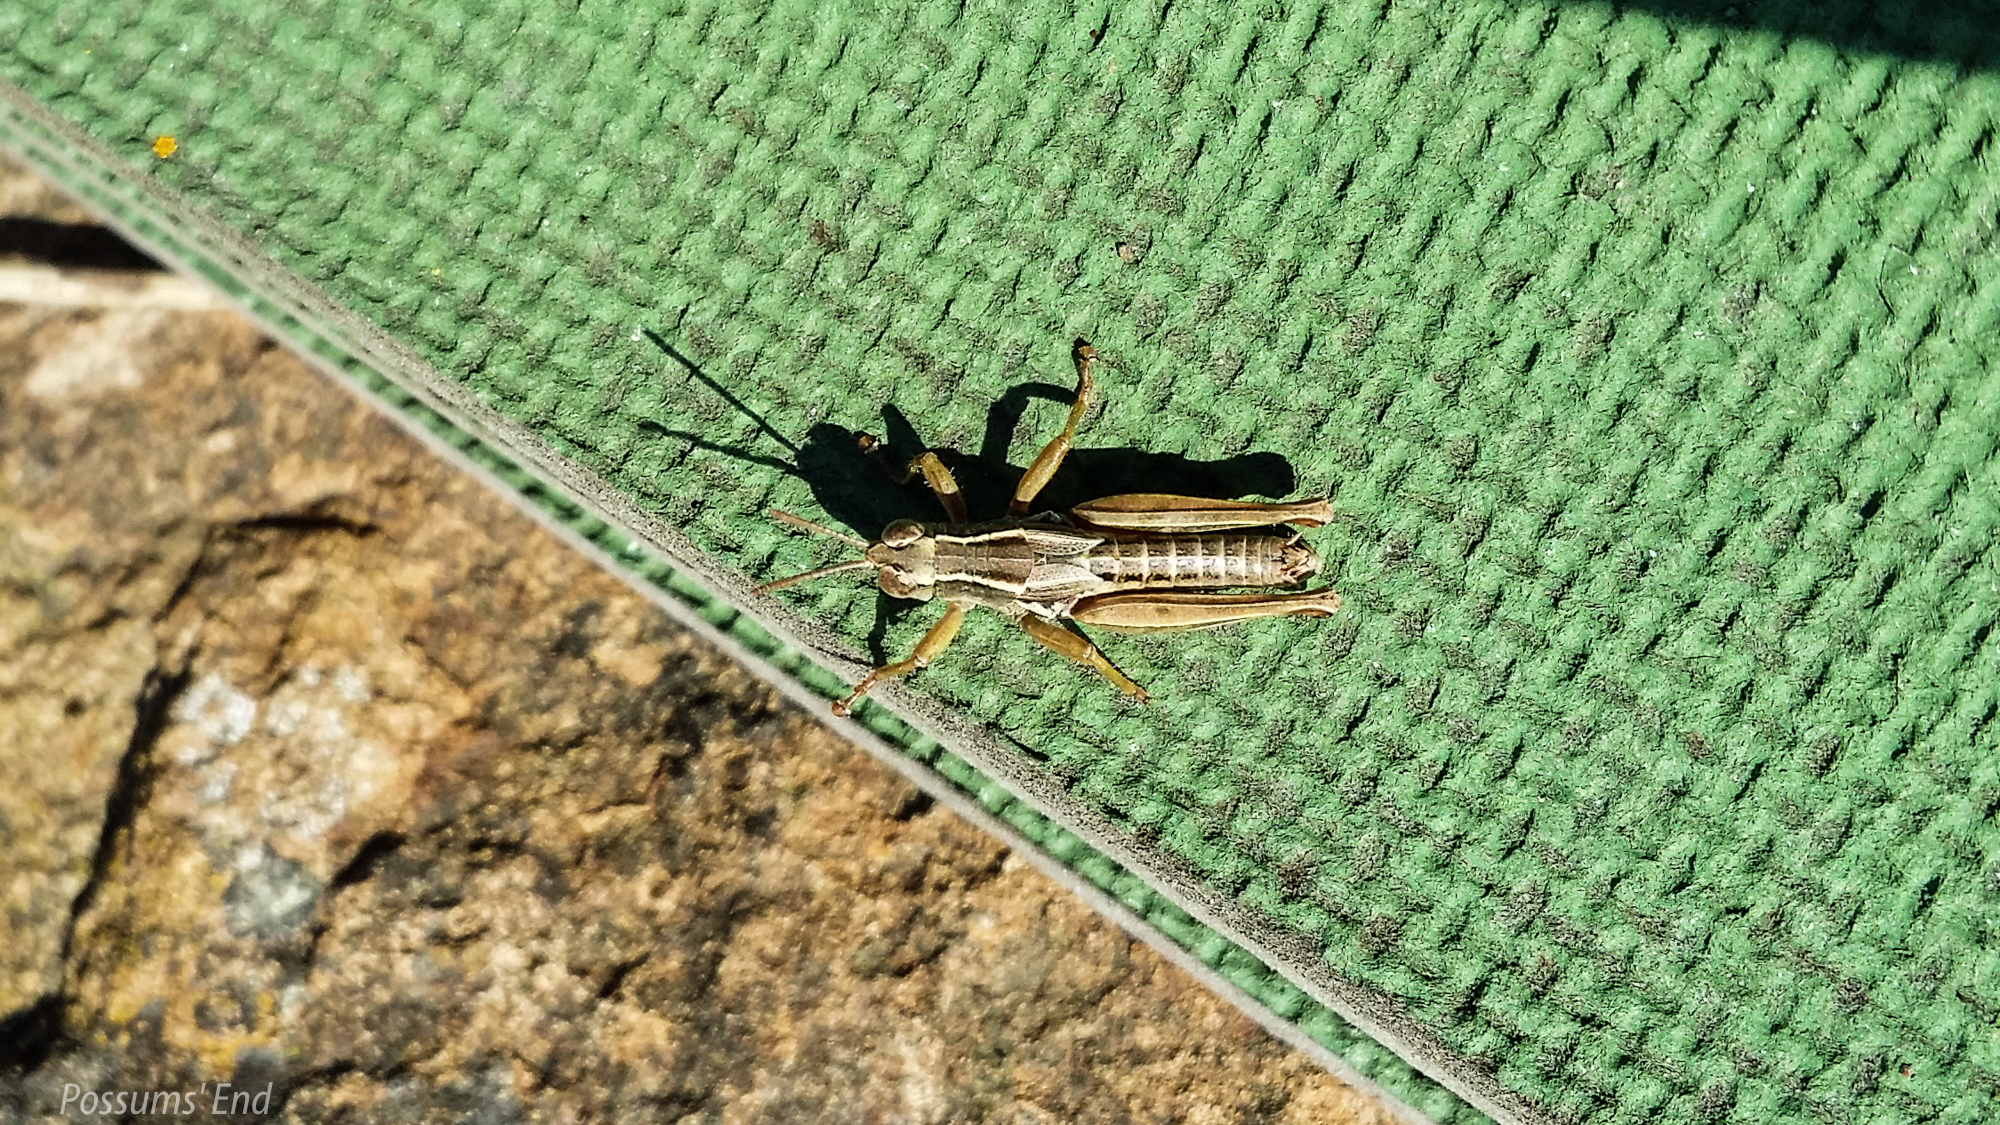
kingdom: Animalia
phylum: Arthropoda
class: Insecta
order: Orthoptera
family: Acrididae
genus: Phaulacridium
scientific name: Phaulacridium marginale
